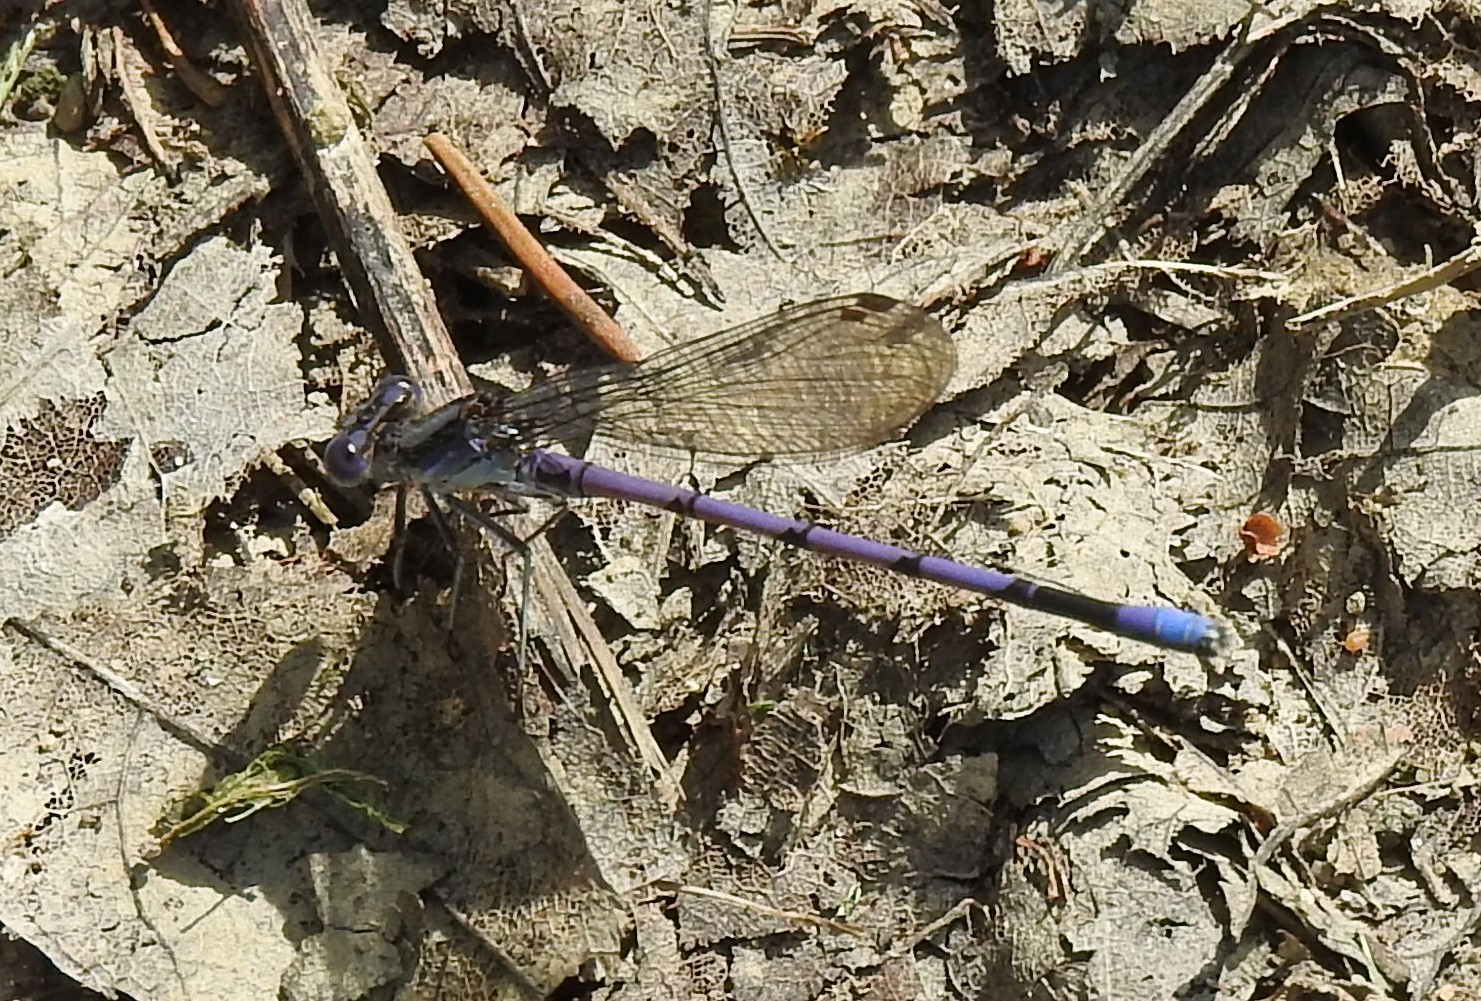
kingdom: Animalia
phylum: Arthropoda
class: Insecta
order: Odonata
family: Coenagrionidae
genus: Argia
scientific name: Argia fumipennis
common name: Variable dancer
